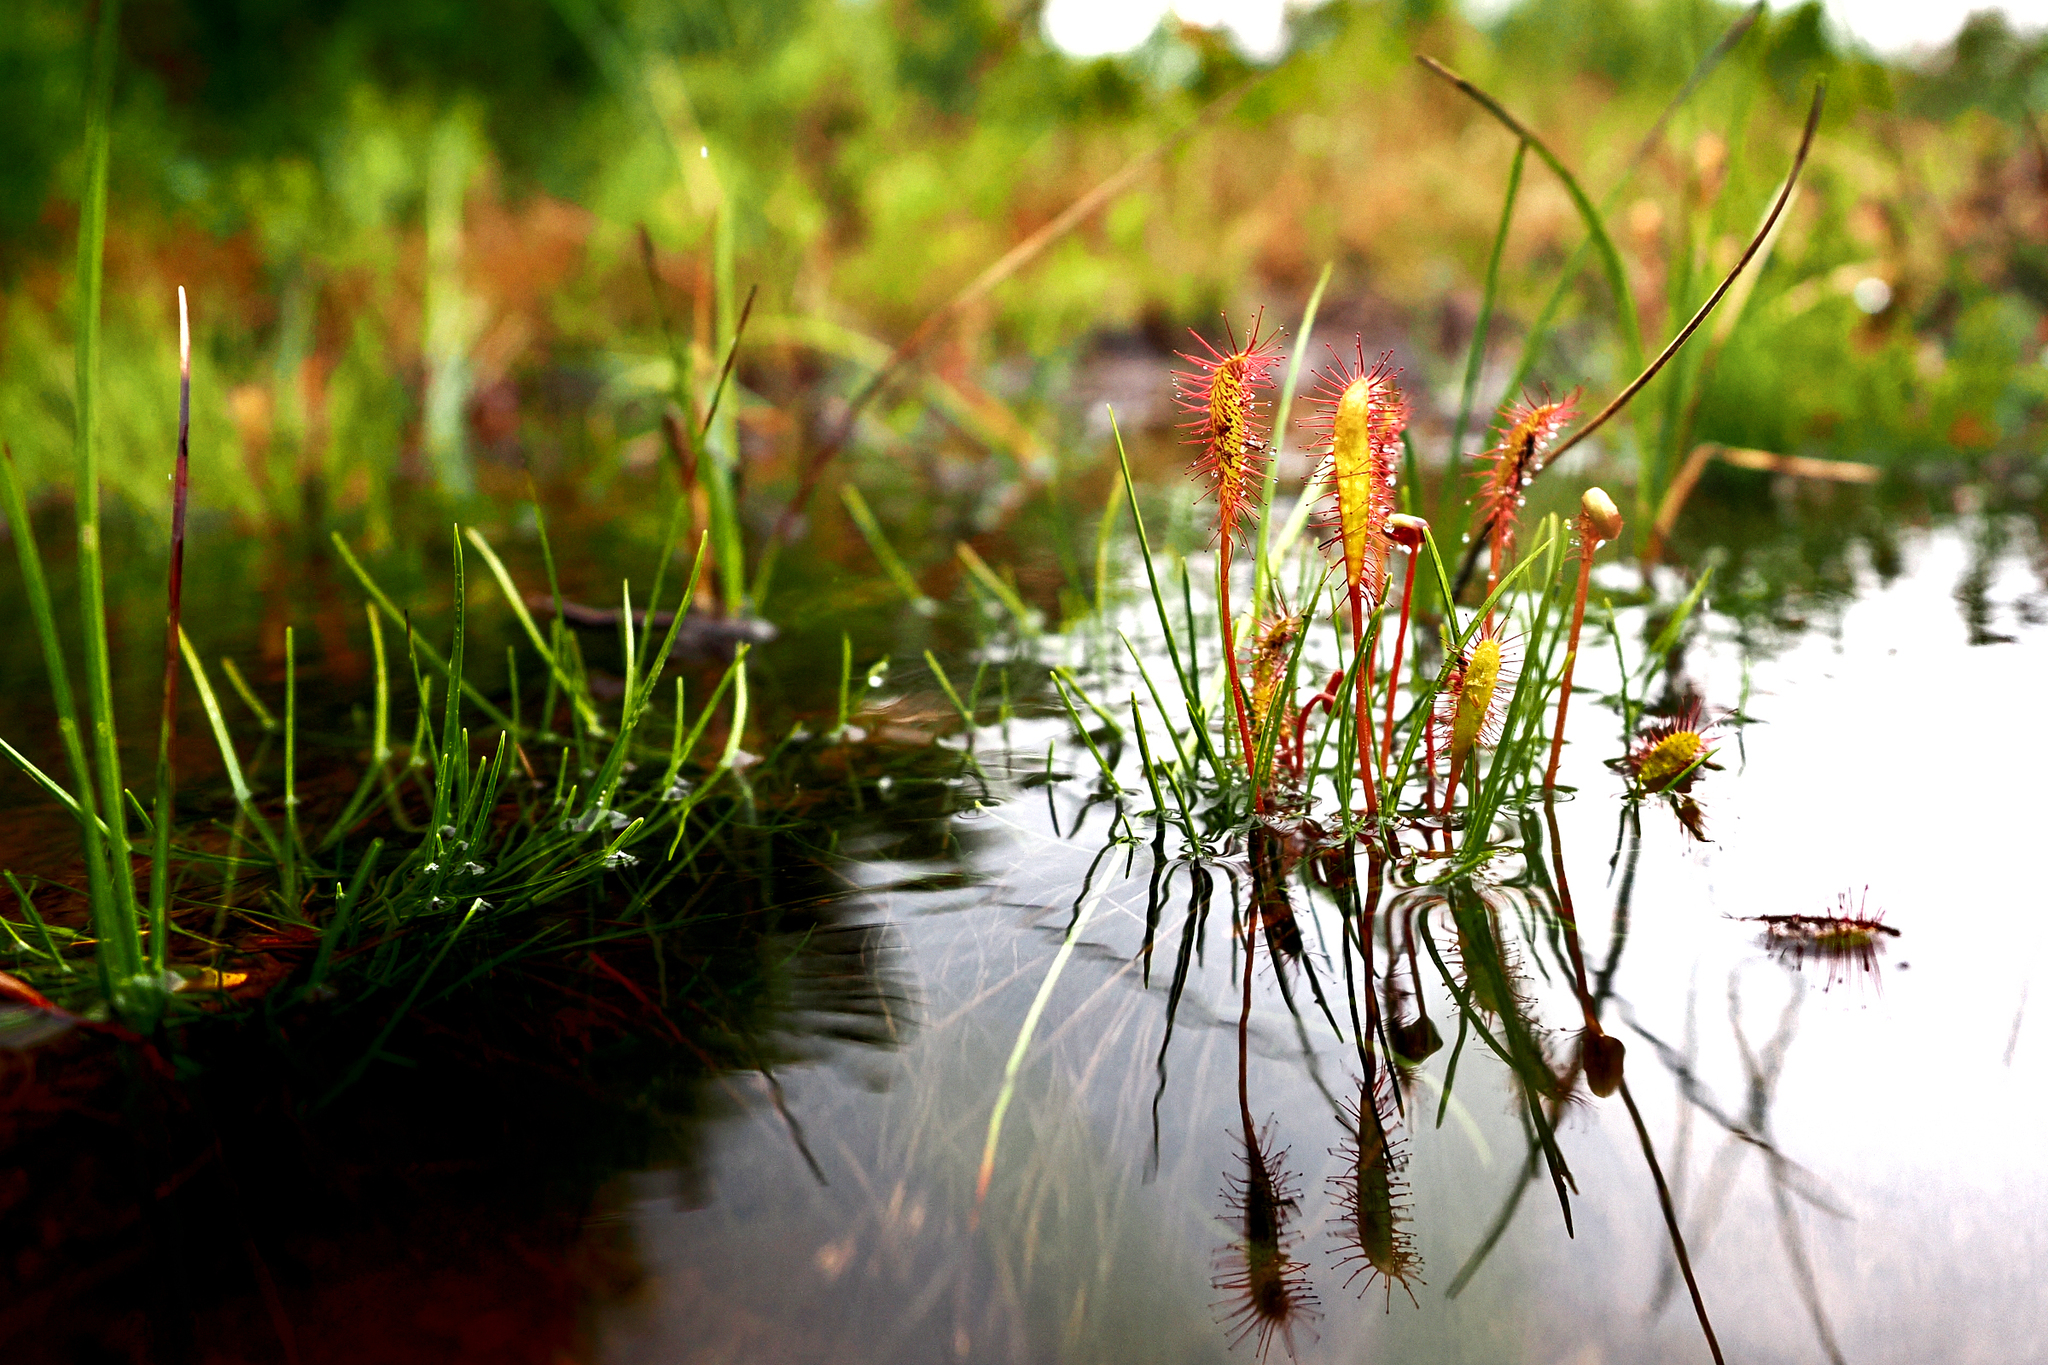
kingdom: Plantae
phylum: Tracheophyta
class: Magnoliopsida
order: Caryophyllales
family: Droseraceae
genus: Drosera
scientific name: Drosera anglica
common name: Great sundew
